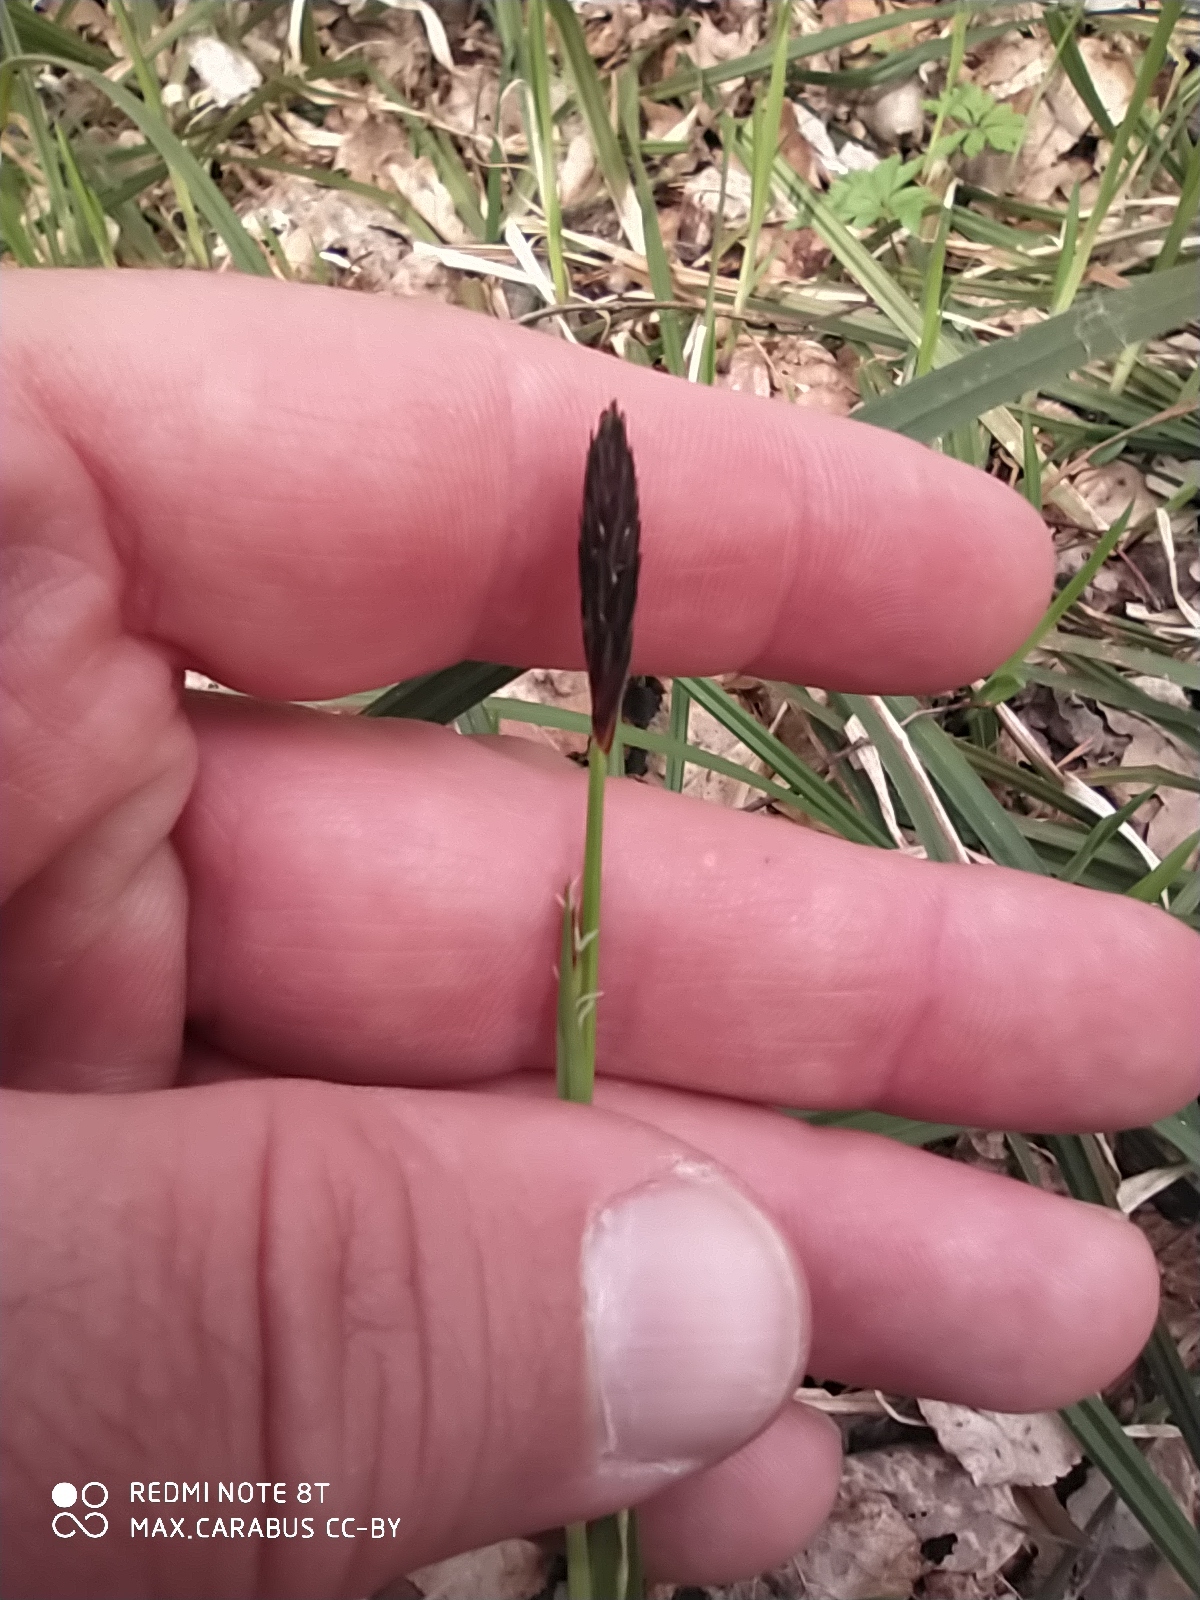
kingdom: Plantae
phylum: Tracheophyta
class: Liliopsida
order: Poales
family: Cyperaceae
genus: Carex
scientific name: Carex pilosa
